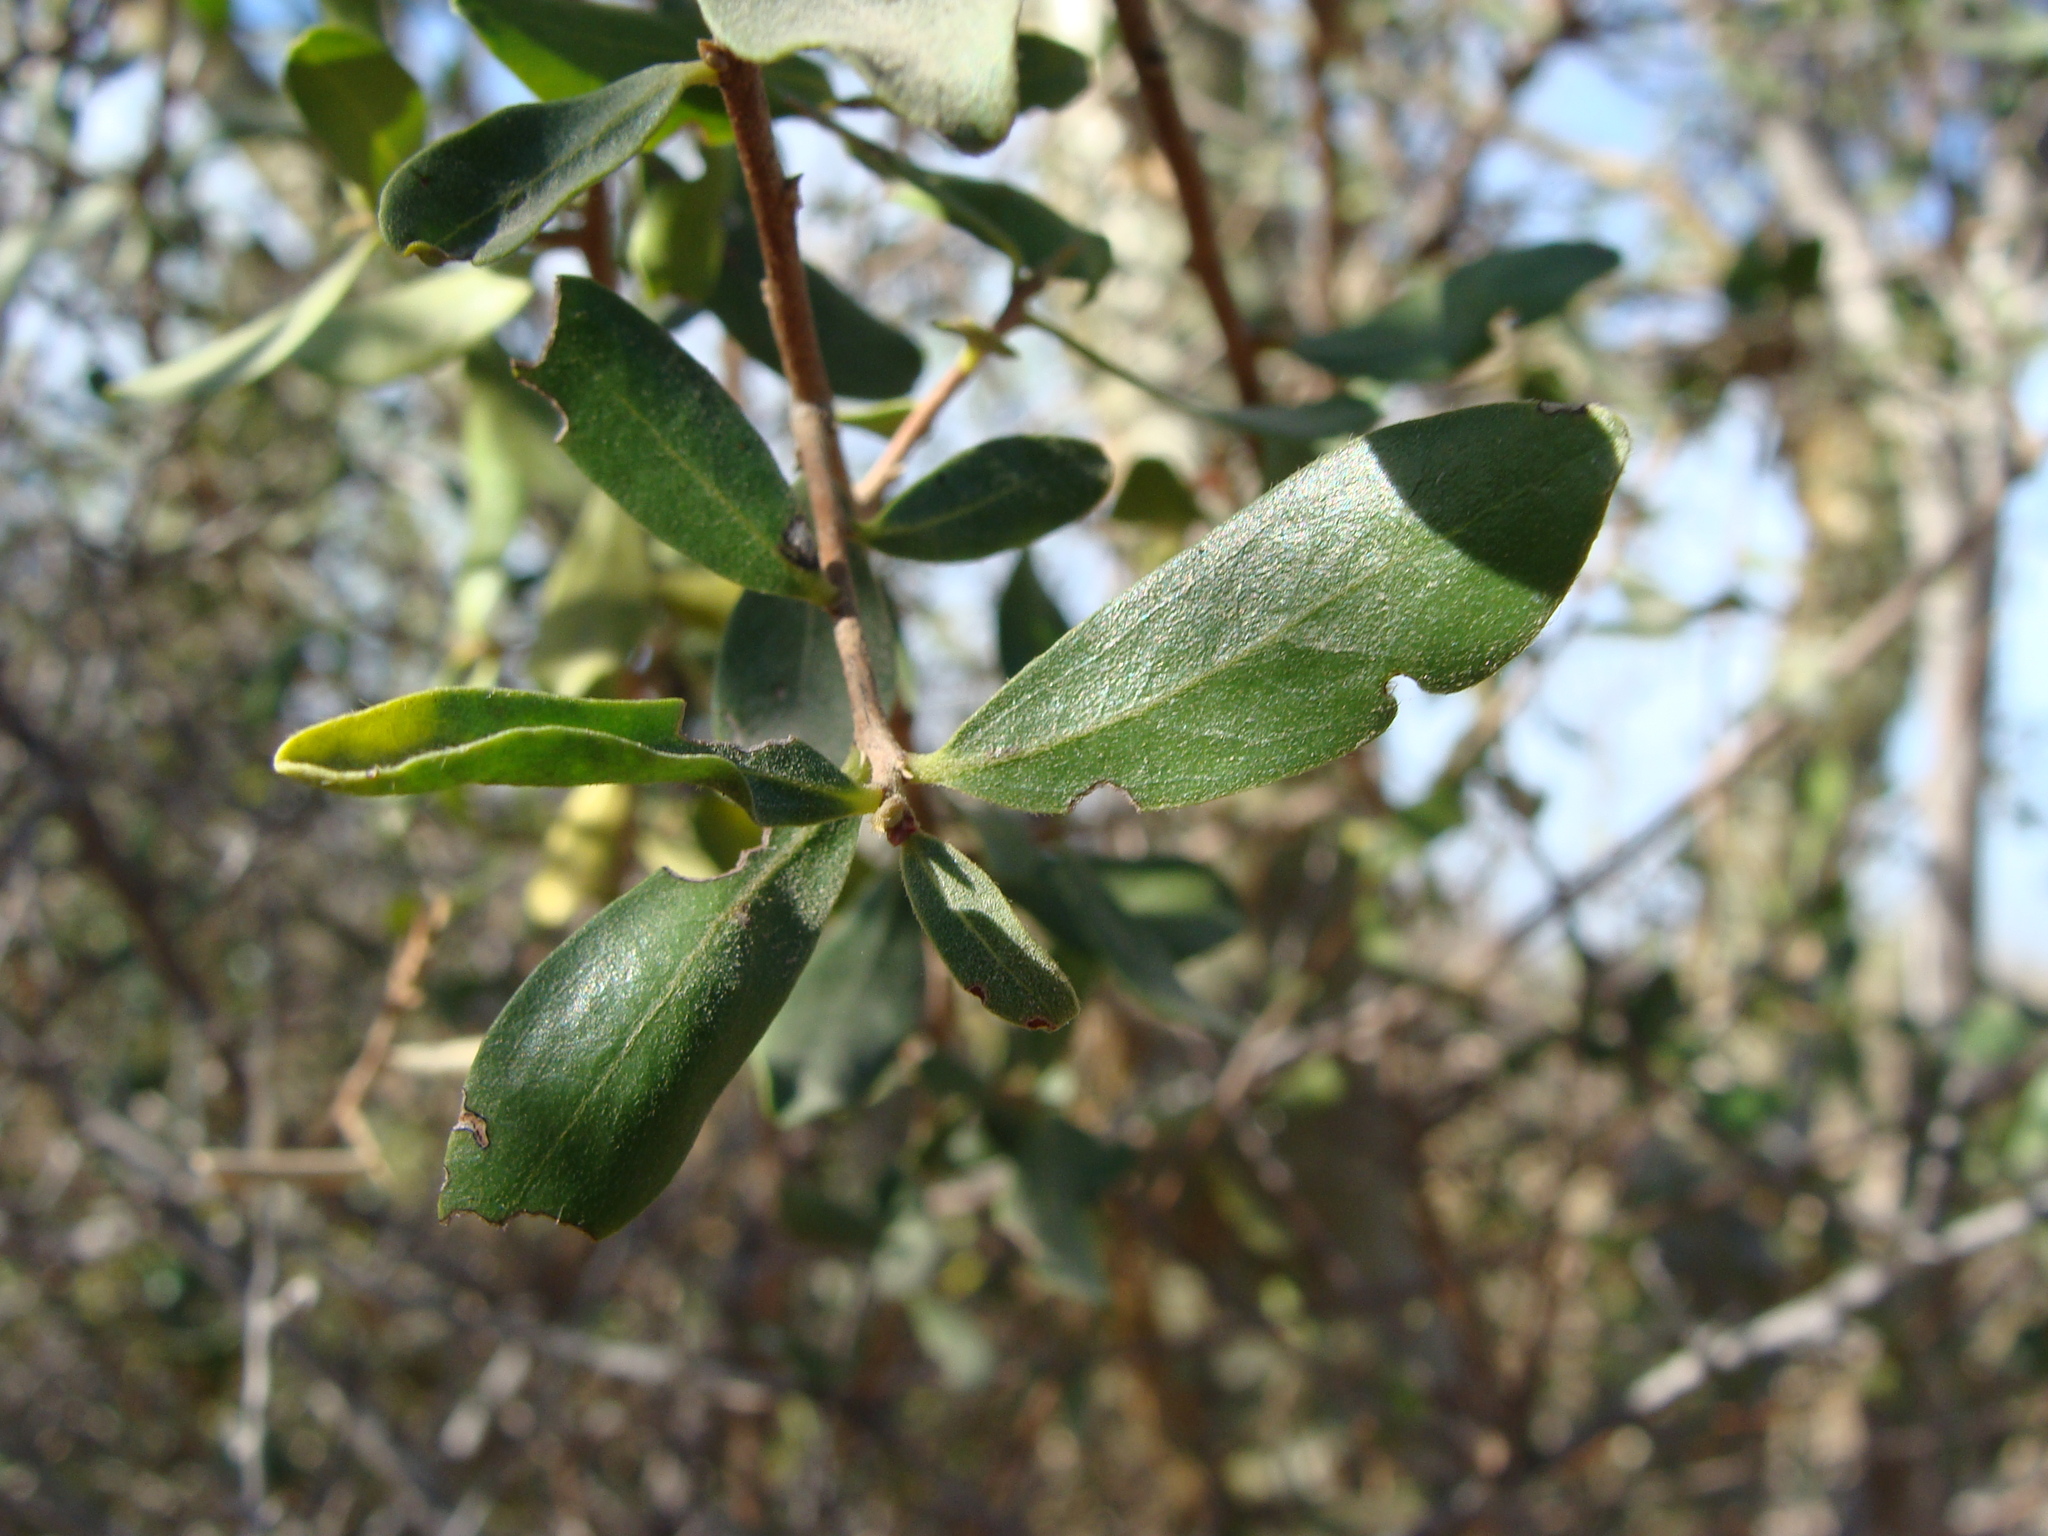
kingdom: Plantae
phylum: Tracheophyta
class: Magnoliopsida
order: Ericales
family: Ebenaceae
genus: Diospyros
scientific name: Diospyros intricata
